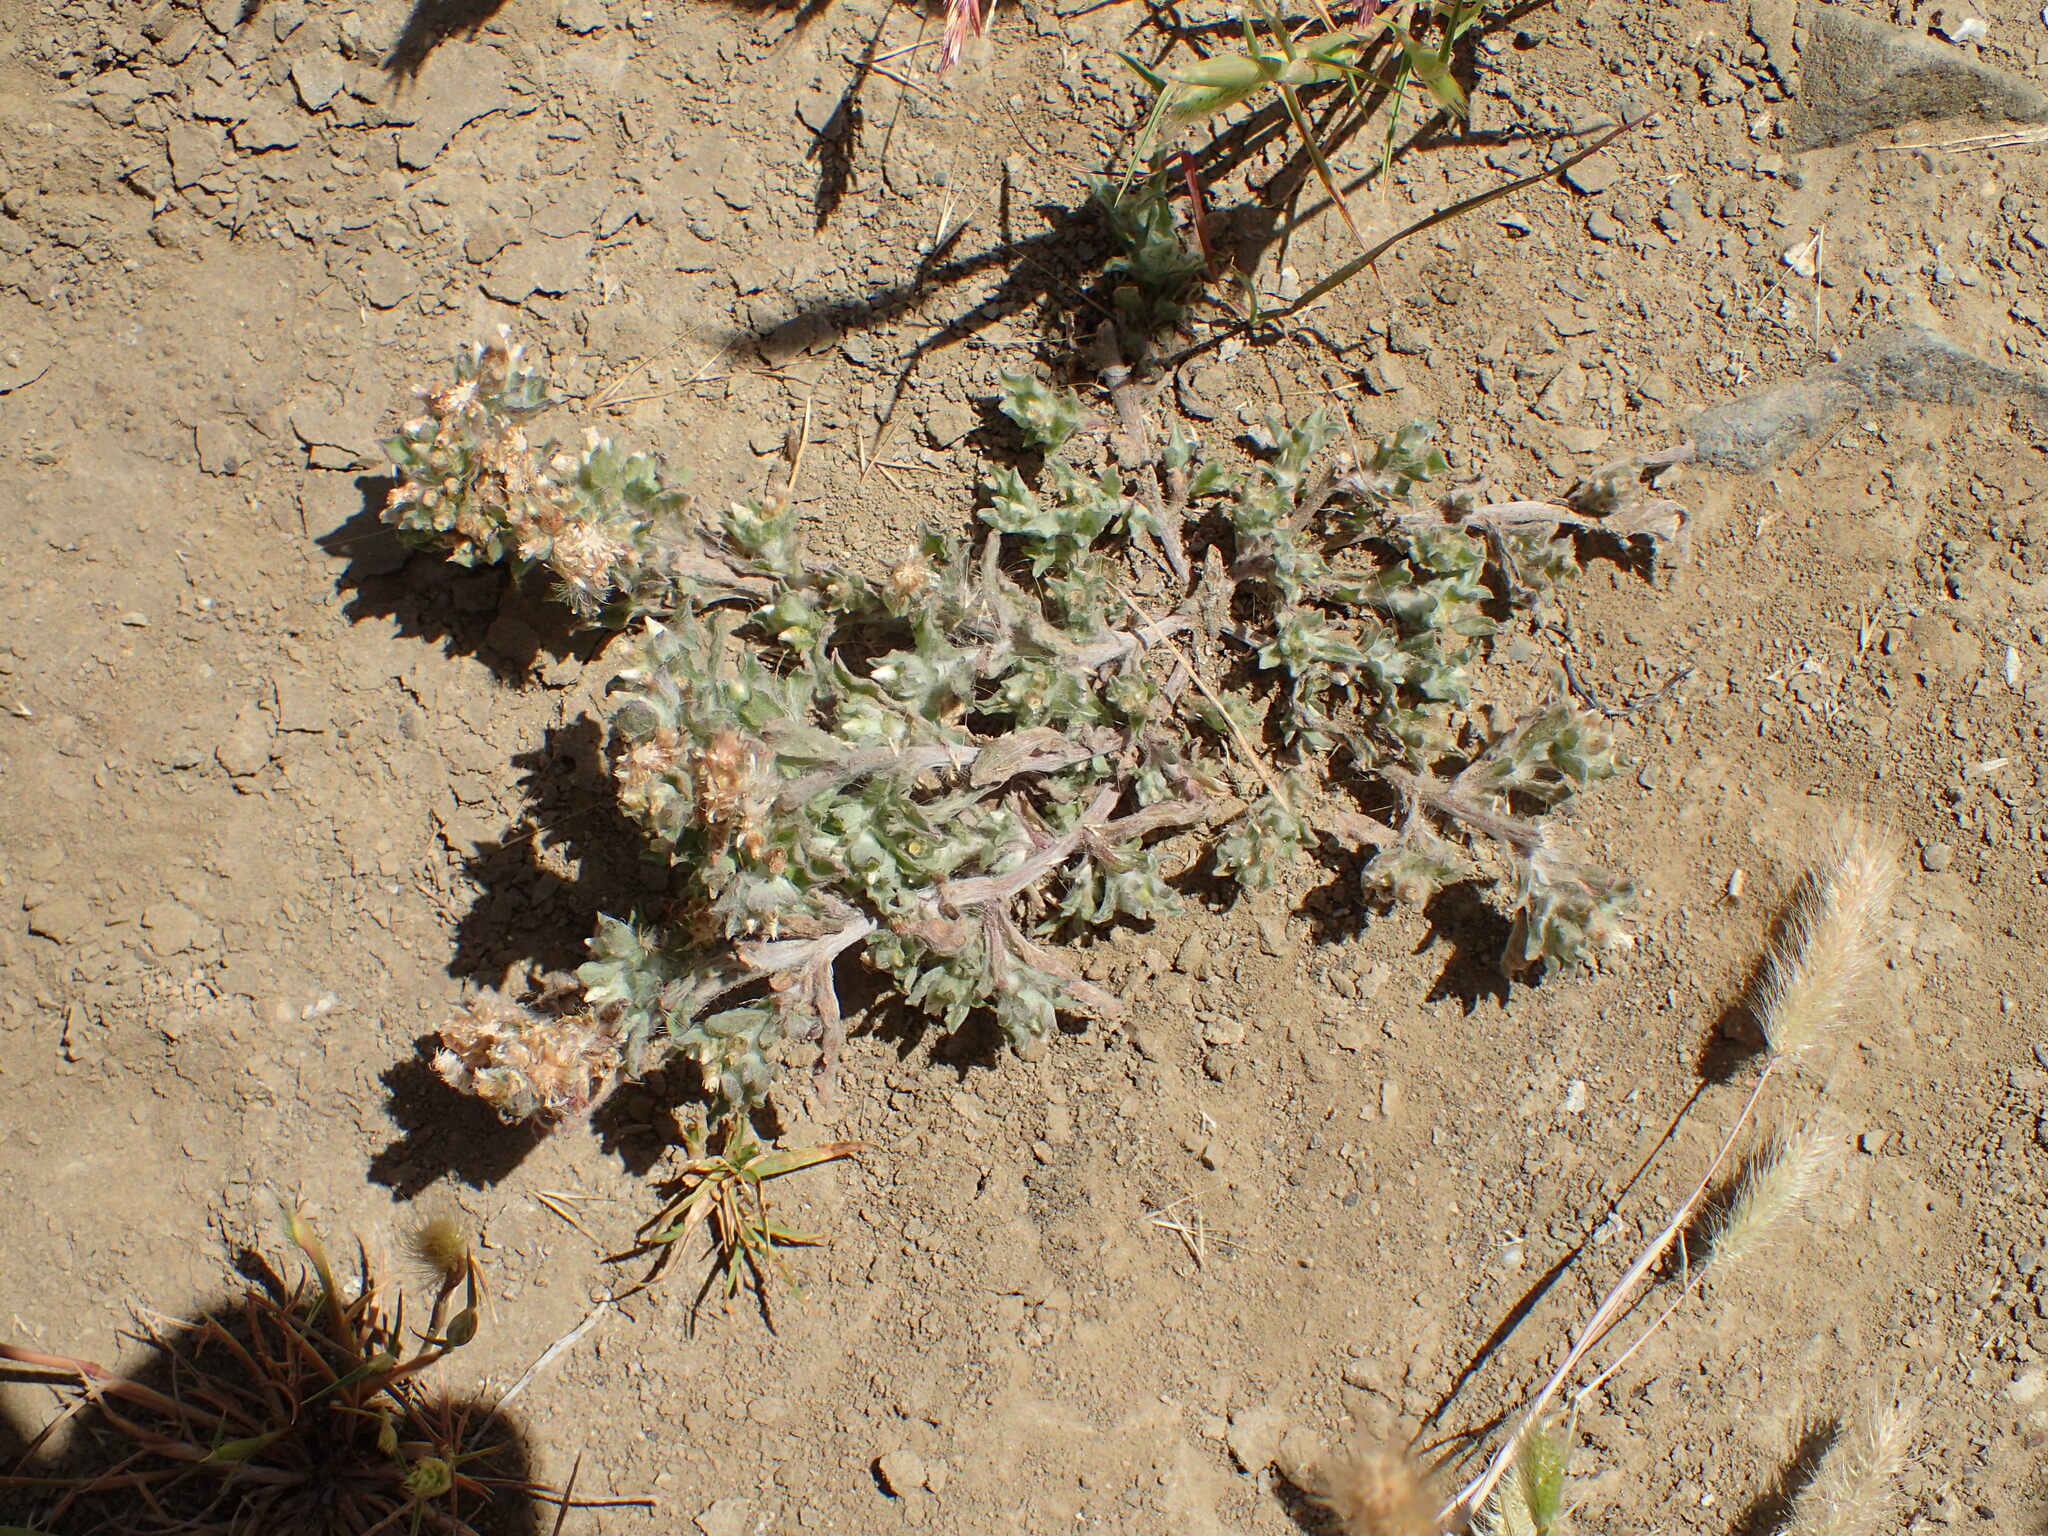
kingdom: Plantae
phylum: Tracheophyta
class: Magnoliopsida
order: Asterales
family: Asteraceae
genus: Gnaphalium
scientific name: Gnaphalium palustre
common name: Western marsh cudweed
